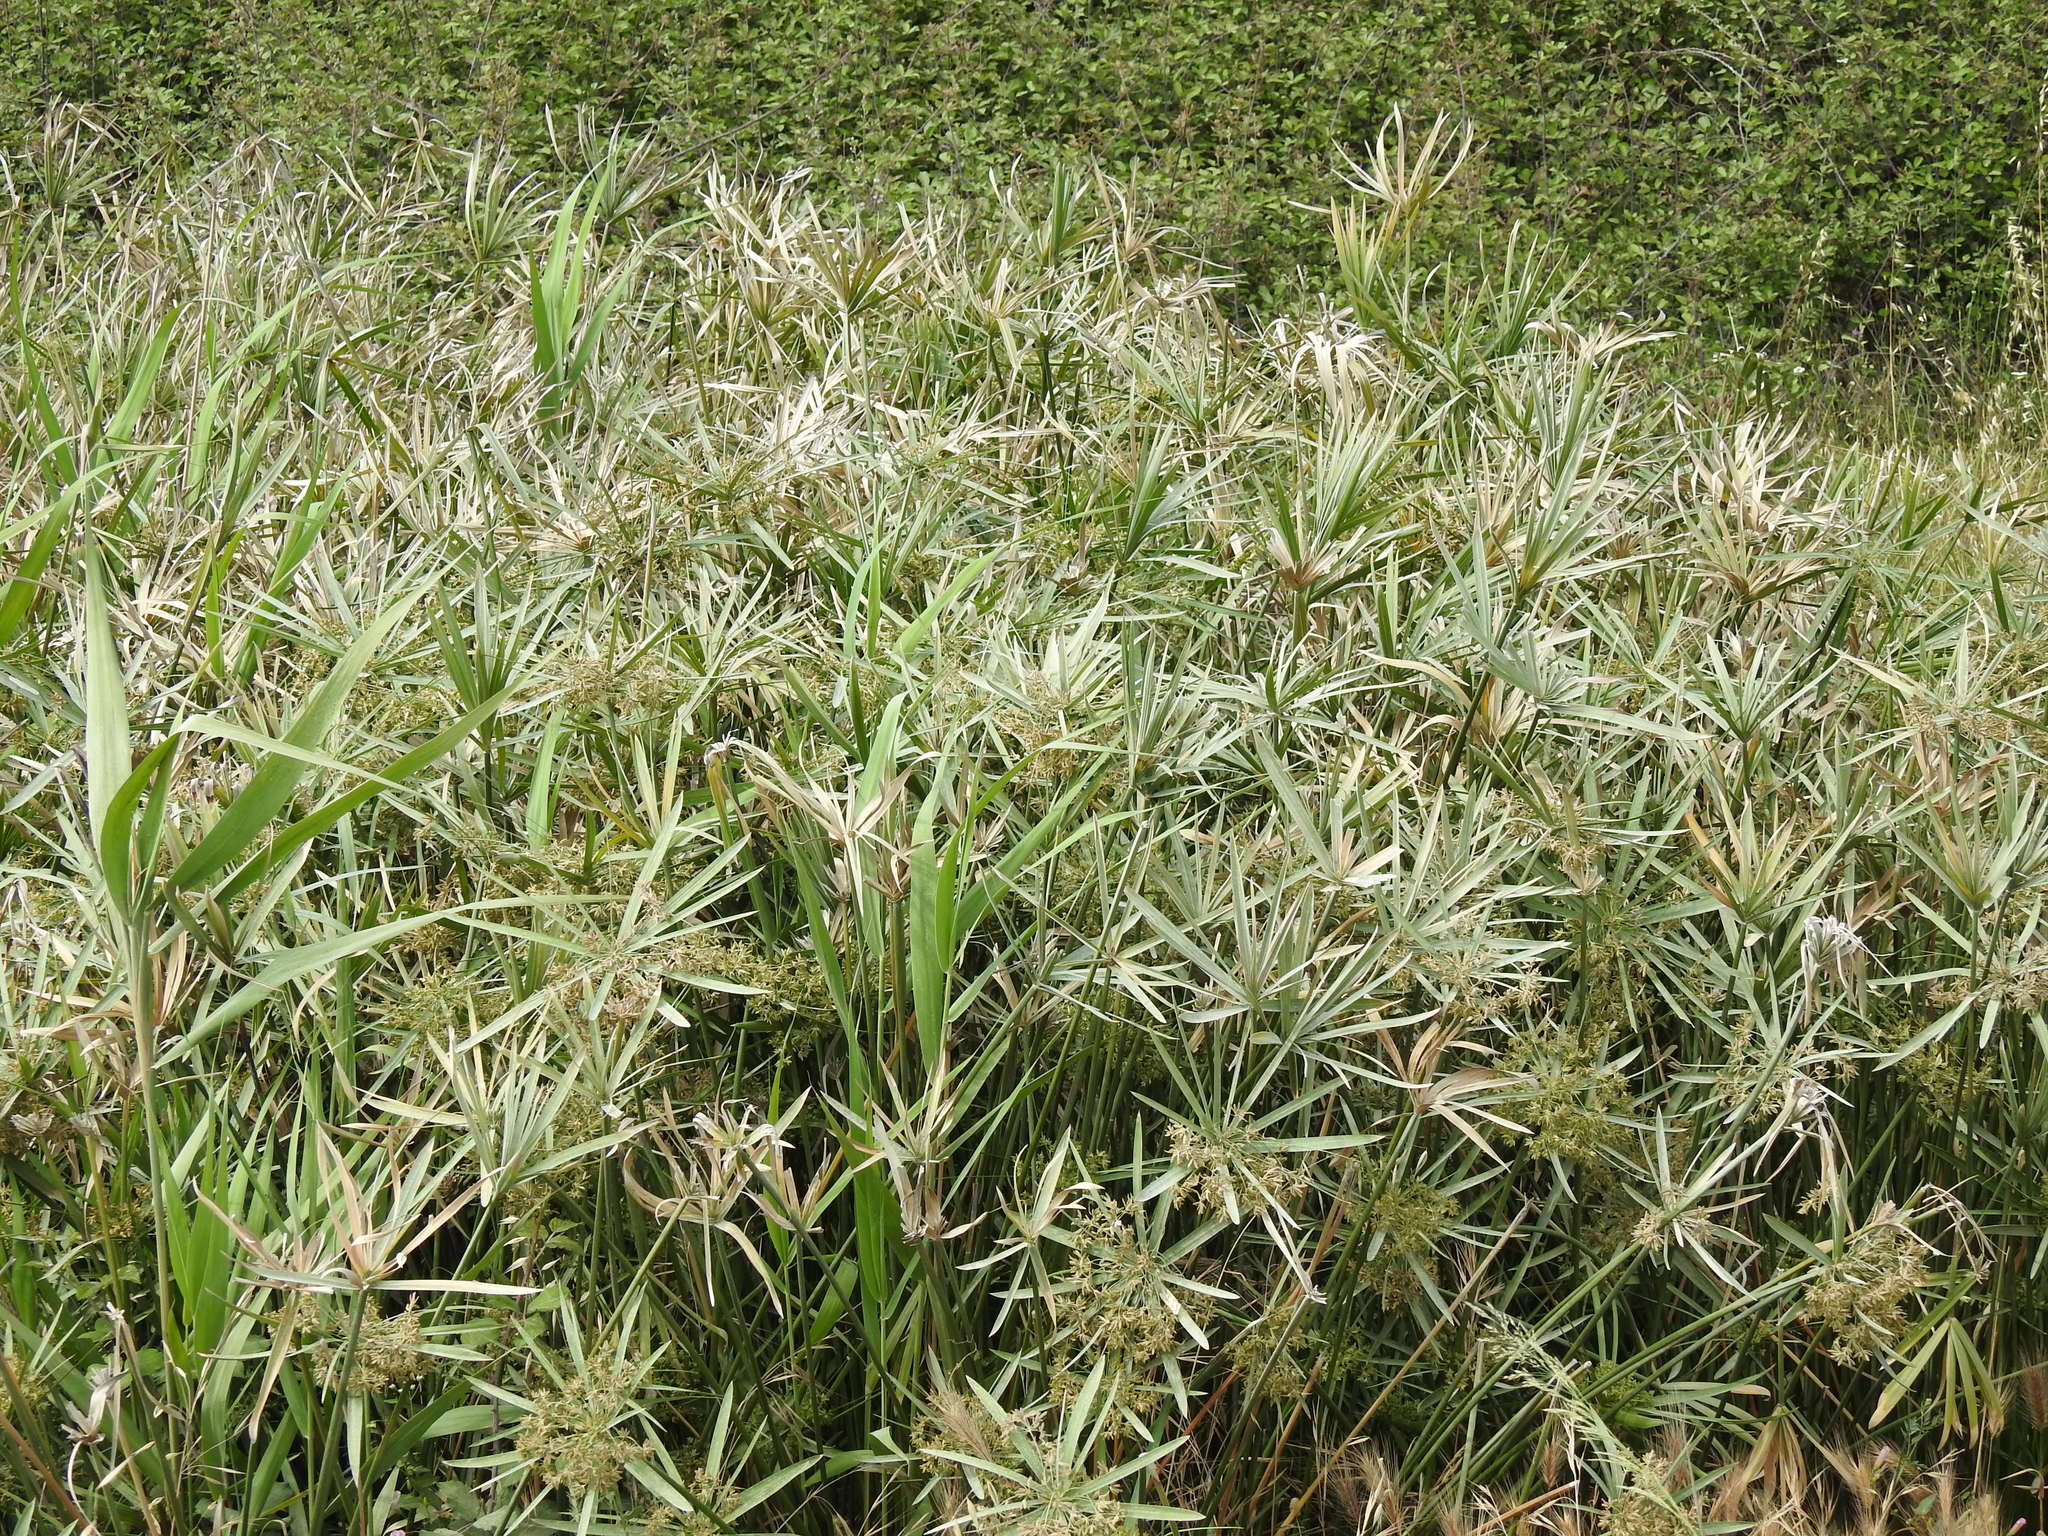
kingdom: Plantae
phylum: Tracheophyta
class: Liliopsida
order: Poales
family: Cyperaceae
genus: Cyperus
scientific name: Cyperus alternifolius
